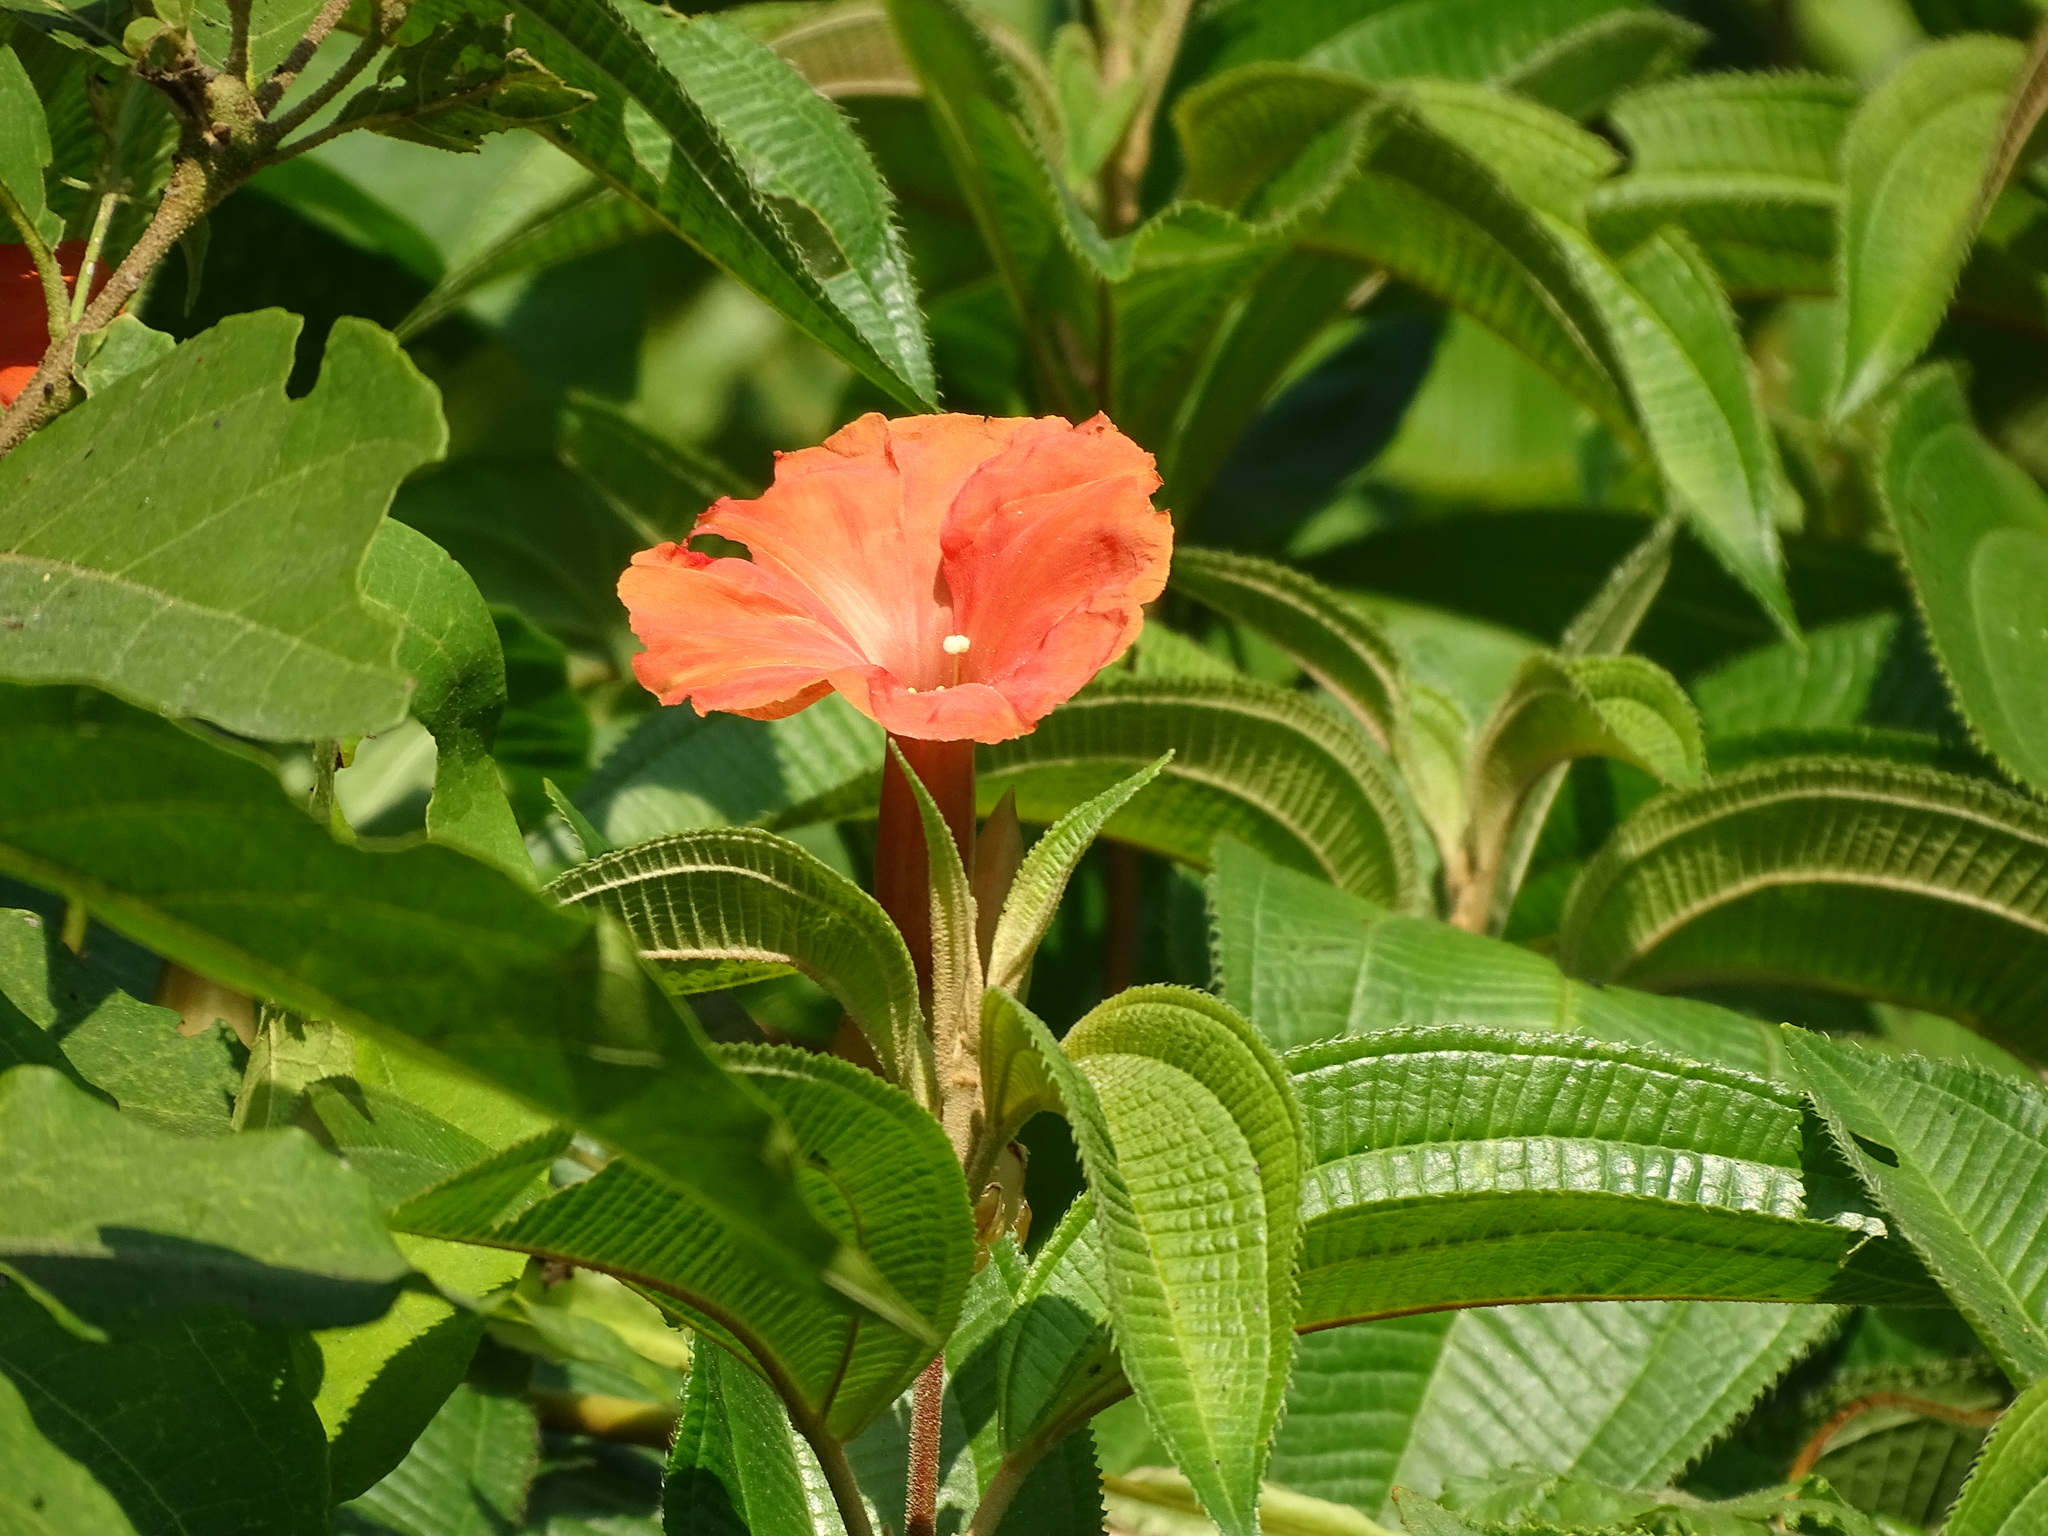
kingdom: Plantae
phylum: Tracheophyta
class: Magnoliopsida
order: Solanales
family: Convolvulaceae
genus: Operculina
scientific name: Operculina pteripes
